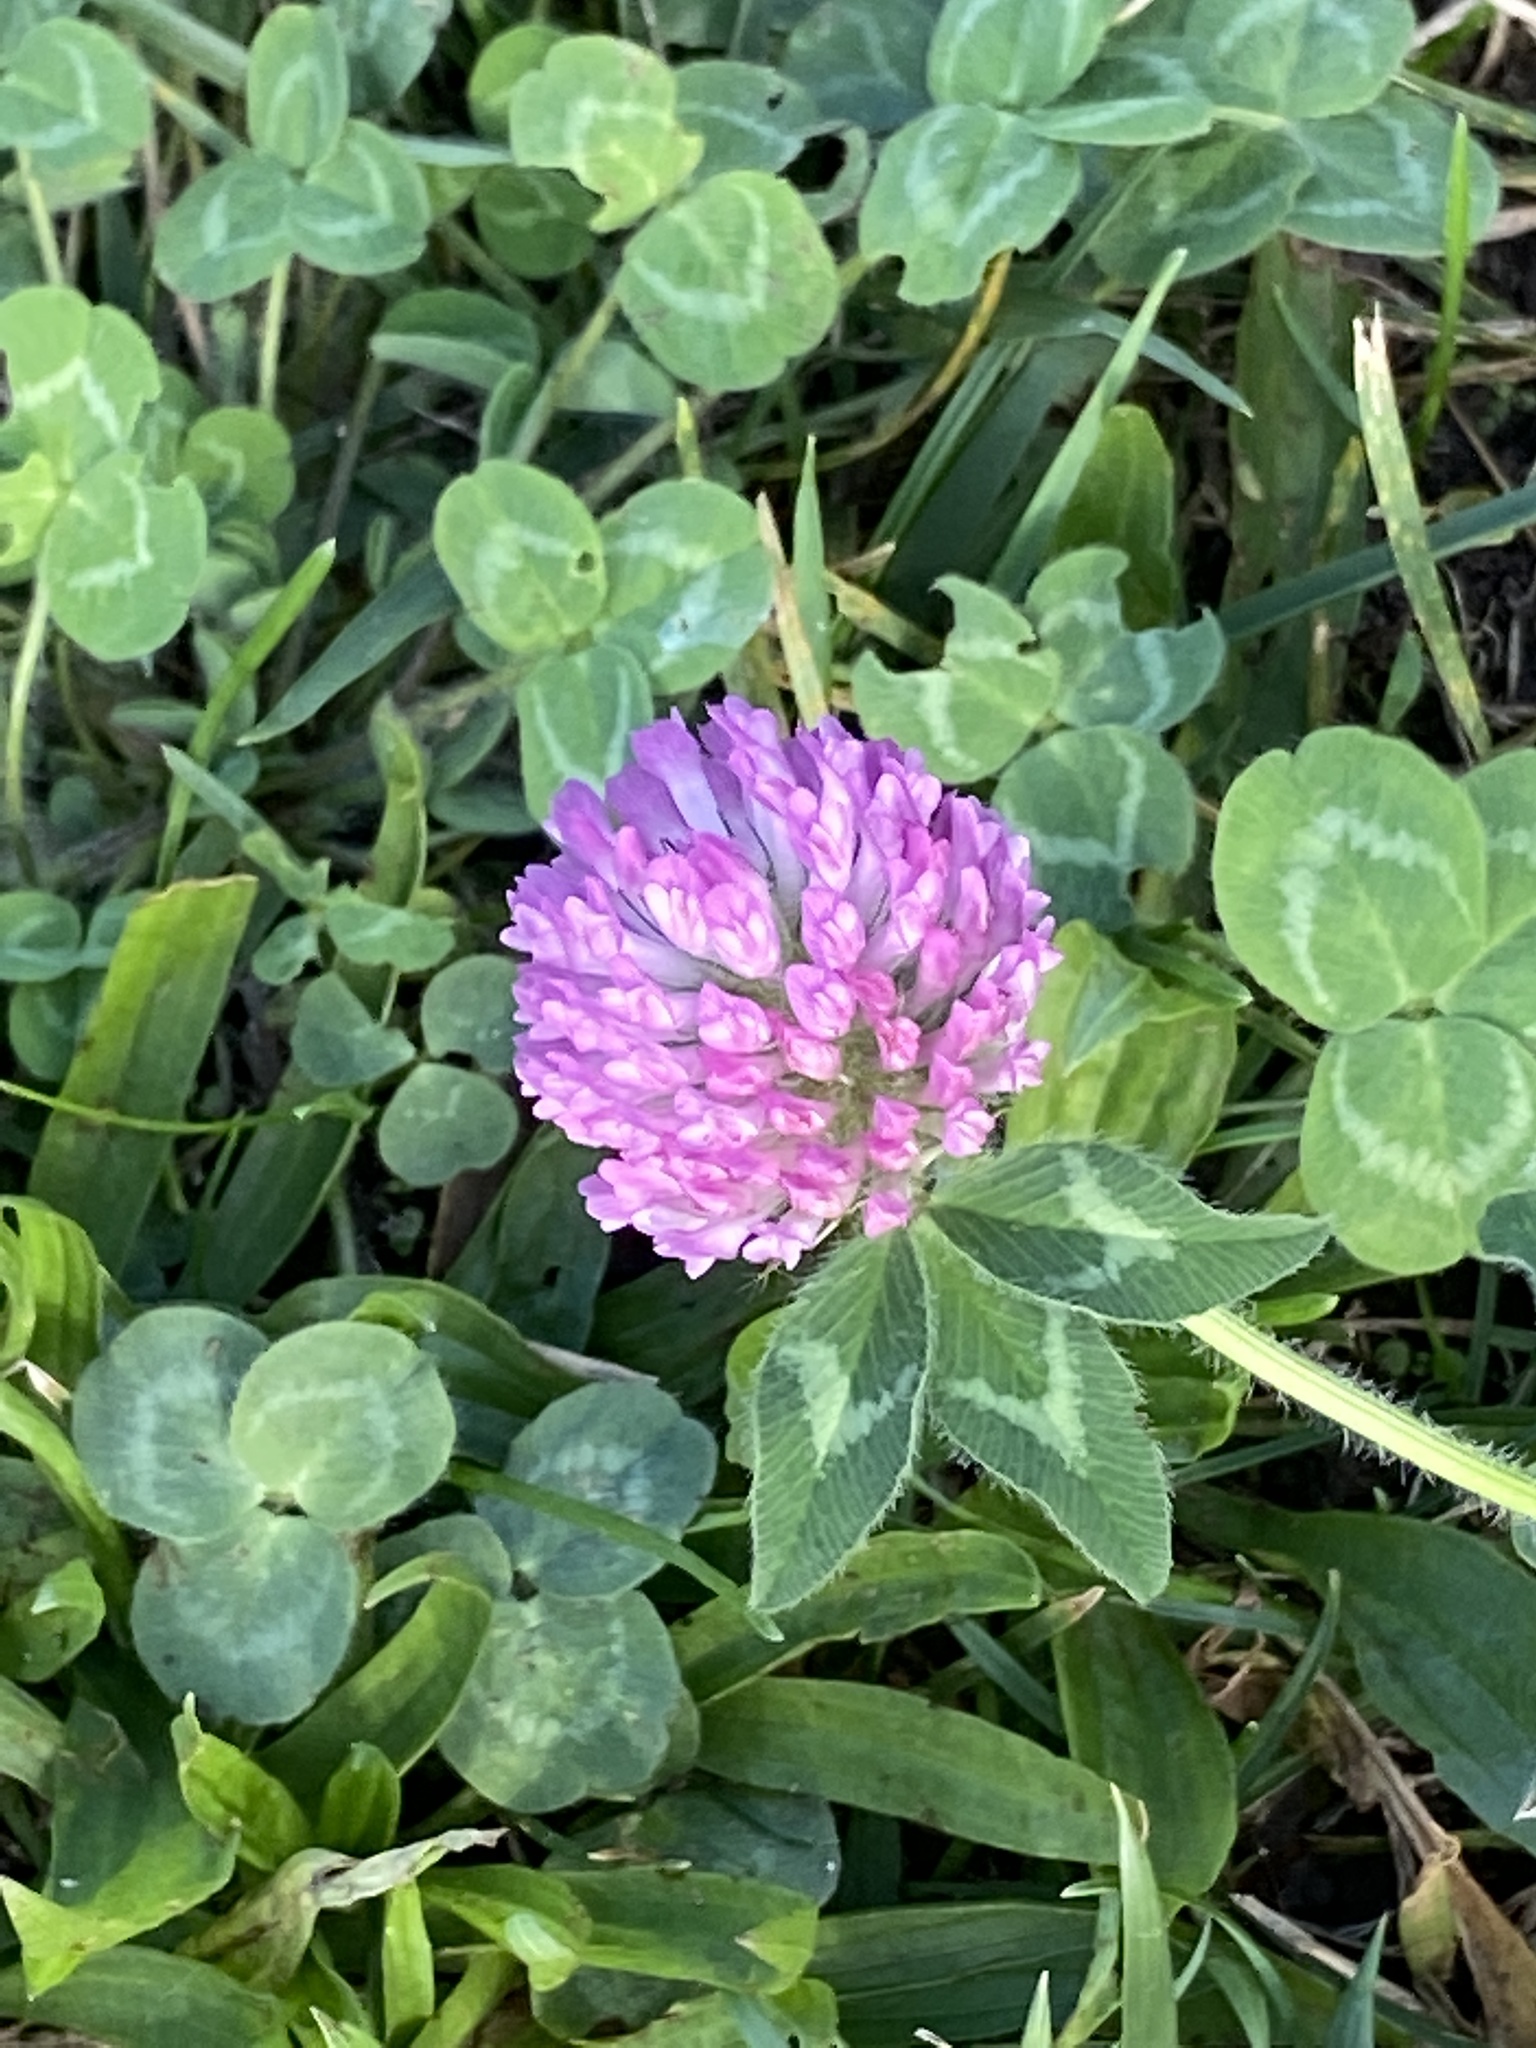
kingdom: Plantae
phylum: Tracheophyta
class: Magnoliopsida
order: Fabales
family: Fabaceae
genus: Trifolium
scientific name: Trifolium pratense
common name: Red clover
